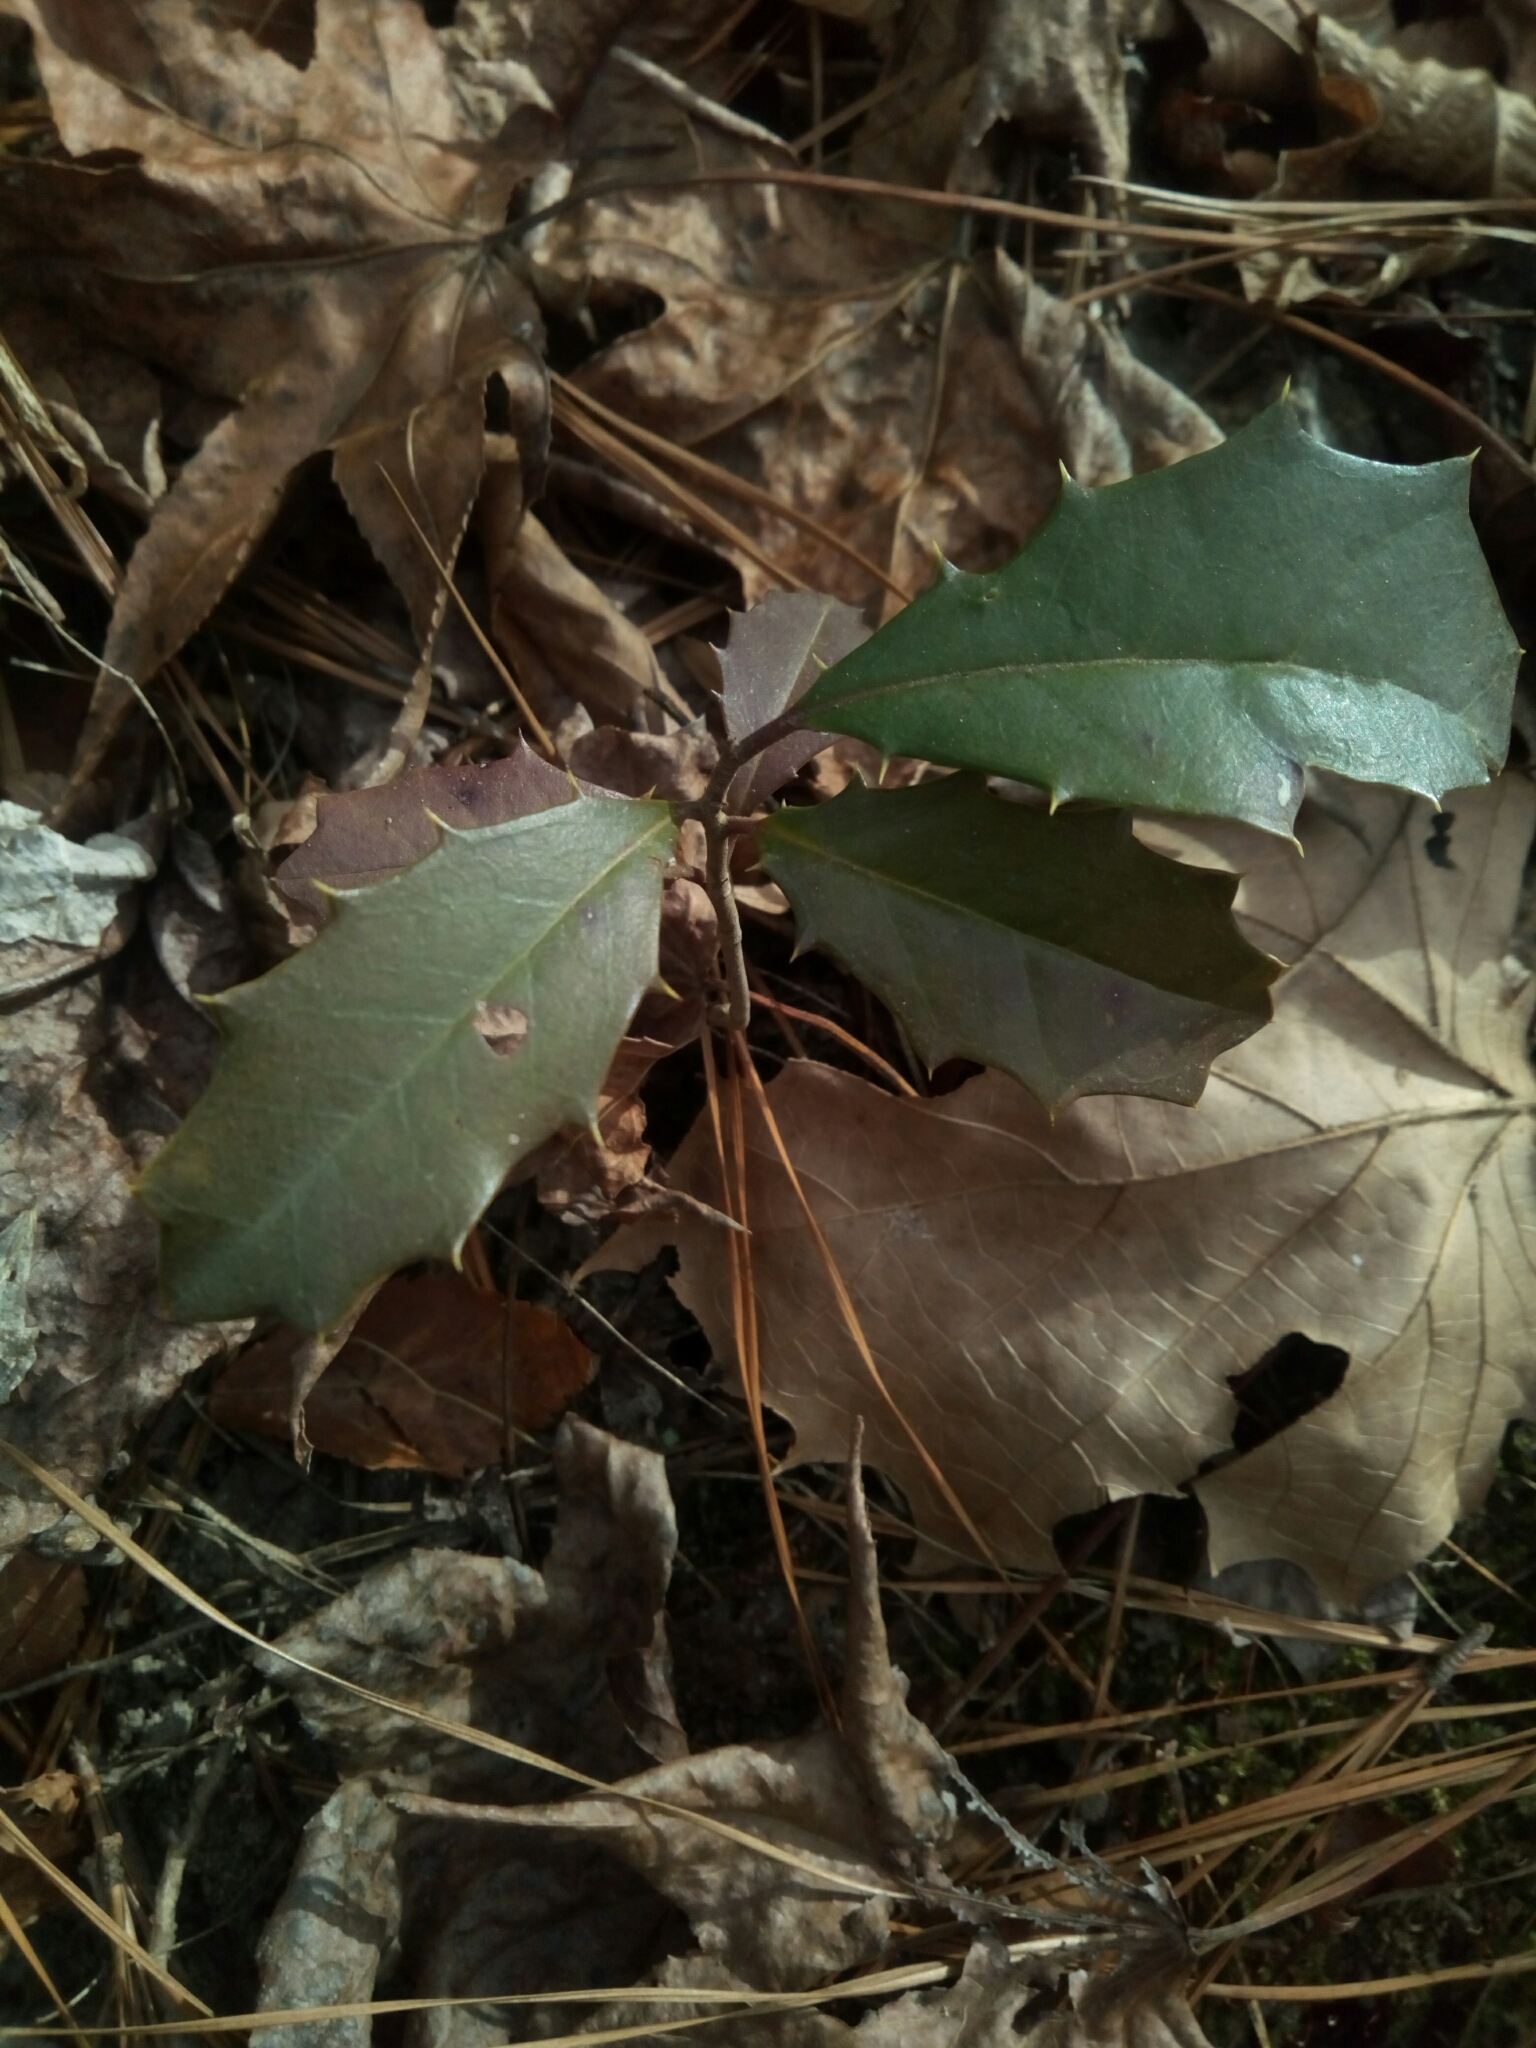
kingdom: Plantae
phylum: Tracheophyta
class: Magnoliopsida
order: Aquifoliales
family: Aquifoliaceae
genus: Ilex
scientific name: Ilex opaca
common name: American holly
